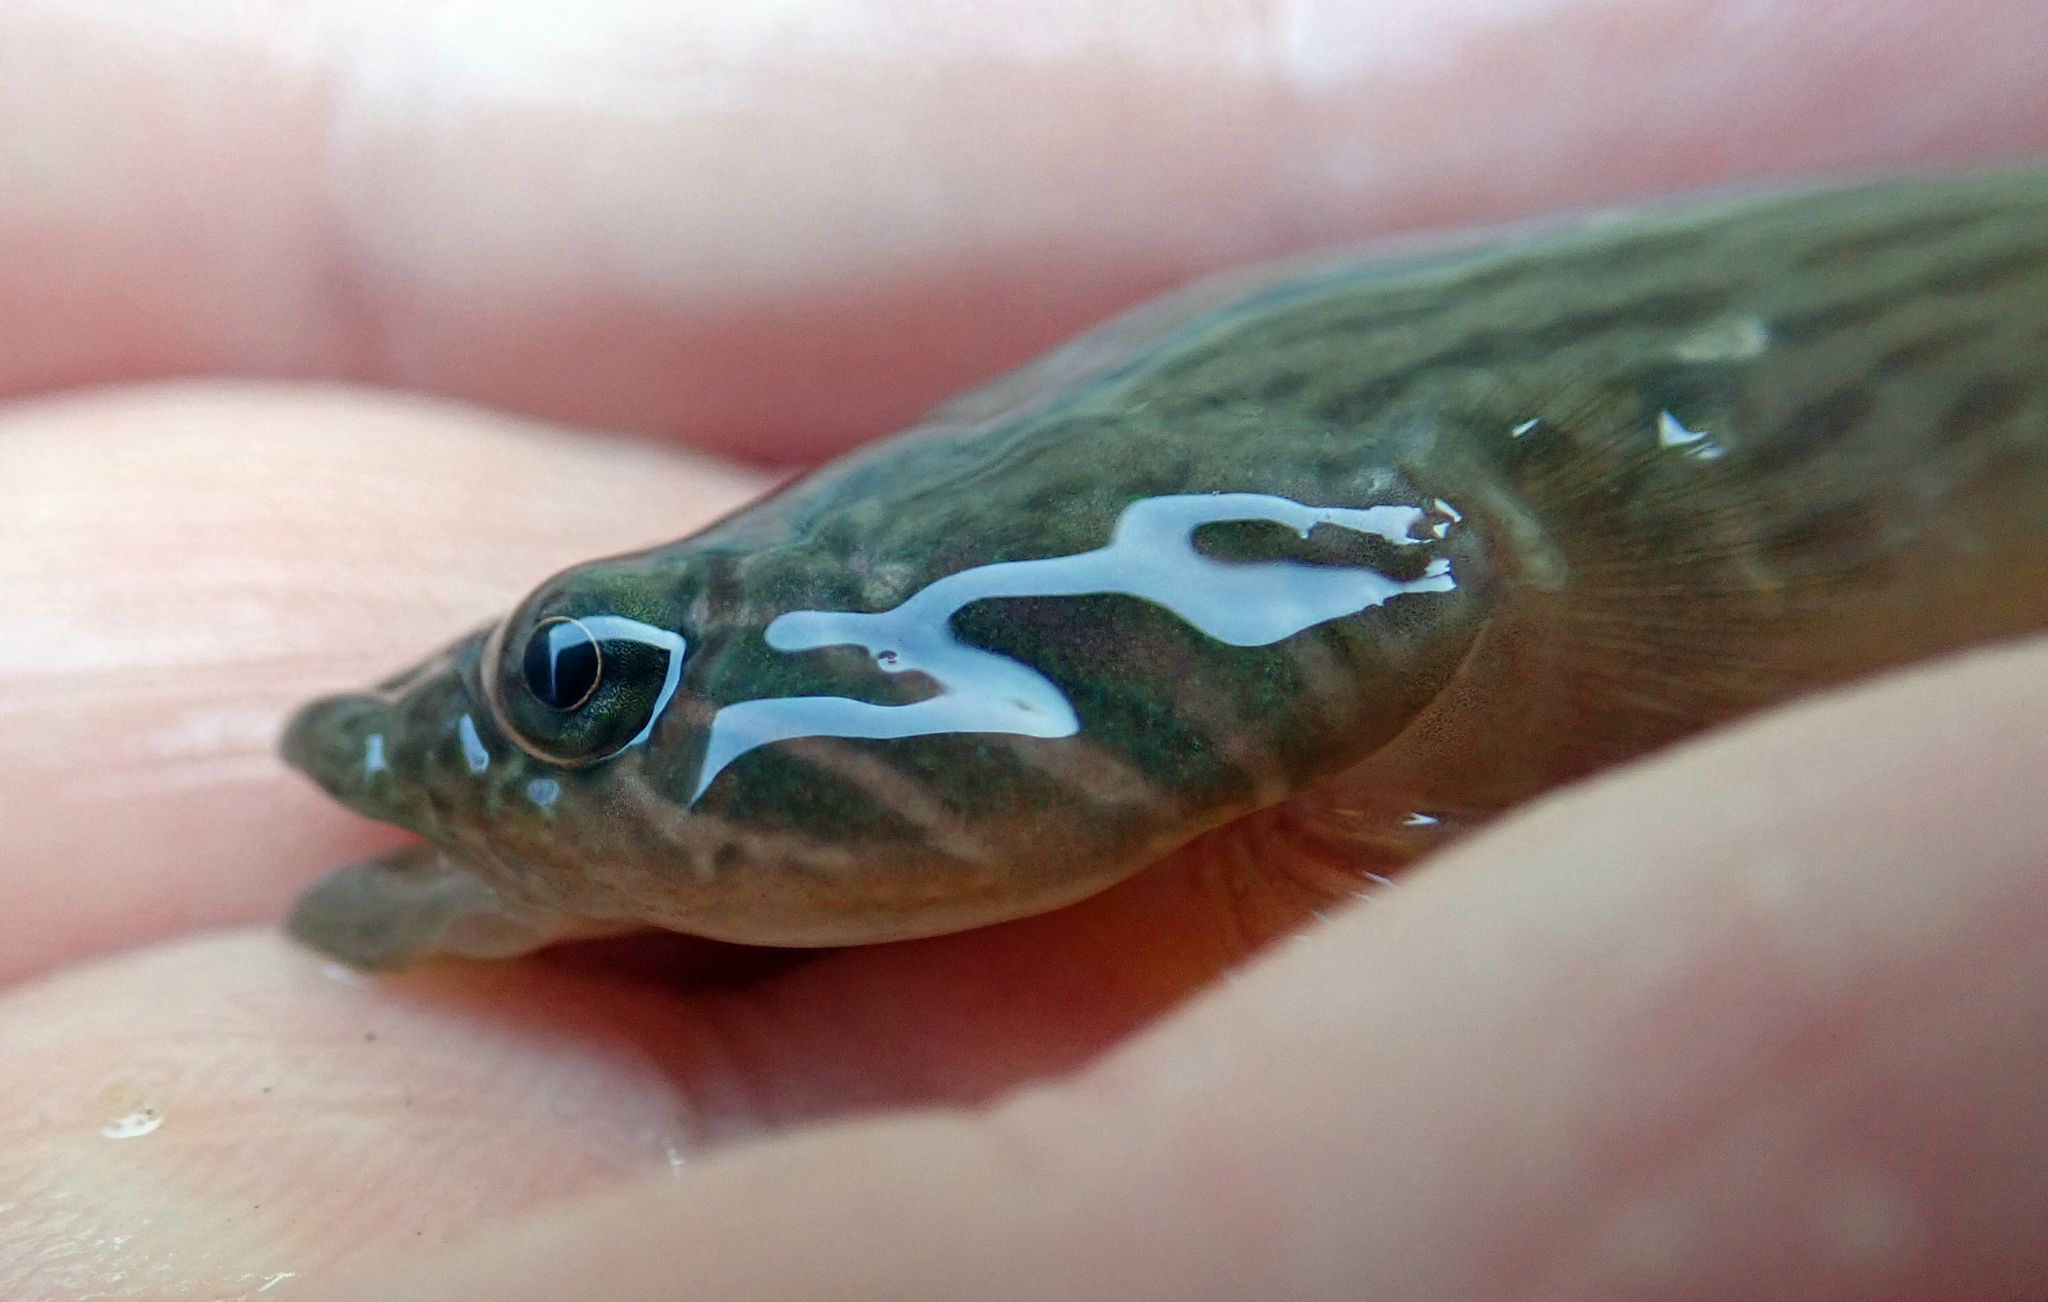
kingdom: Animalia
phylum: Chordata
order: Gobiesociformes
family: Gobiesocidae
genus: Trachelochismus
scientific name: Trachelochismus pinnulatus
